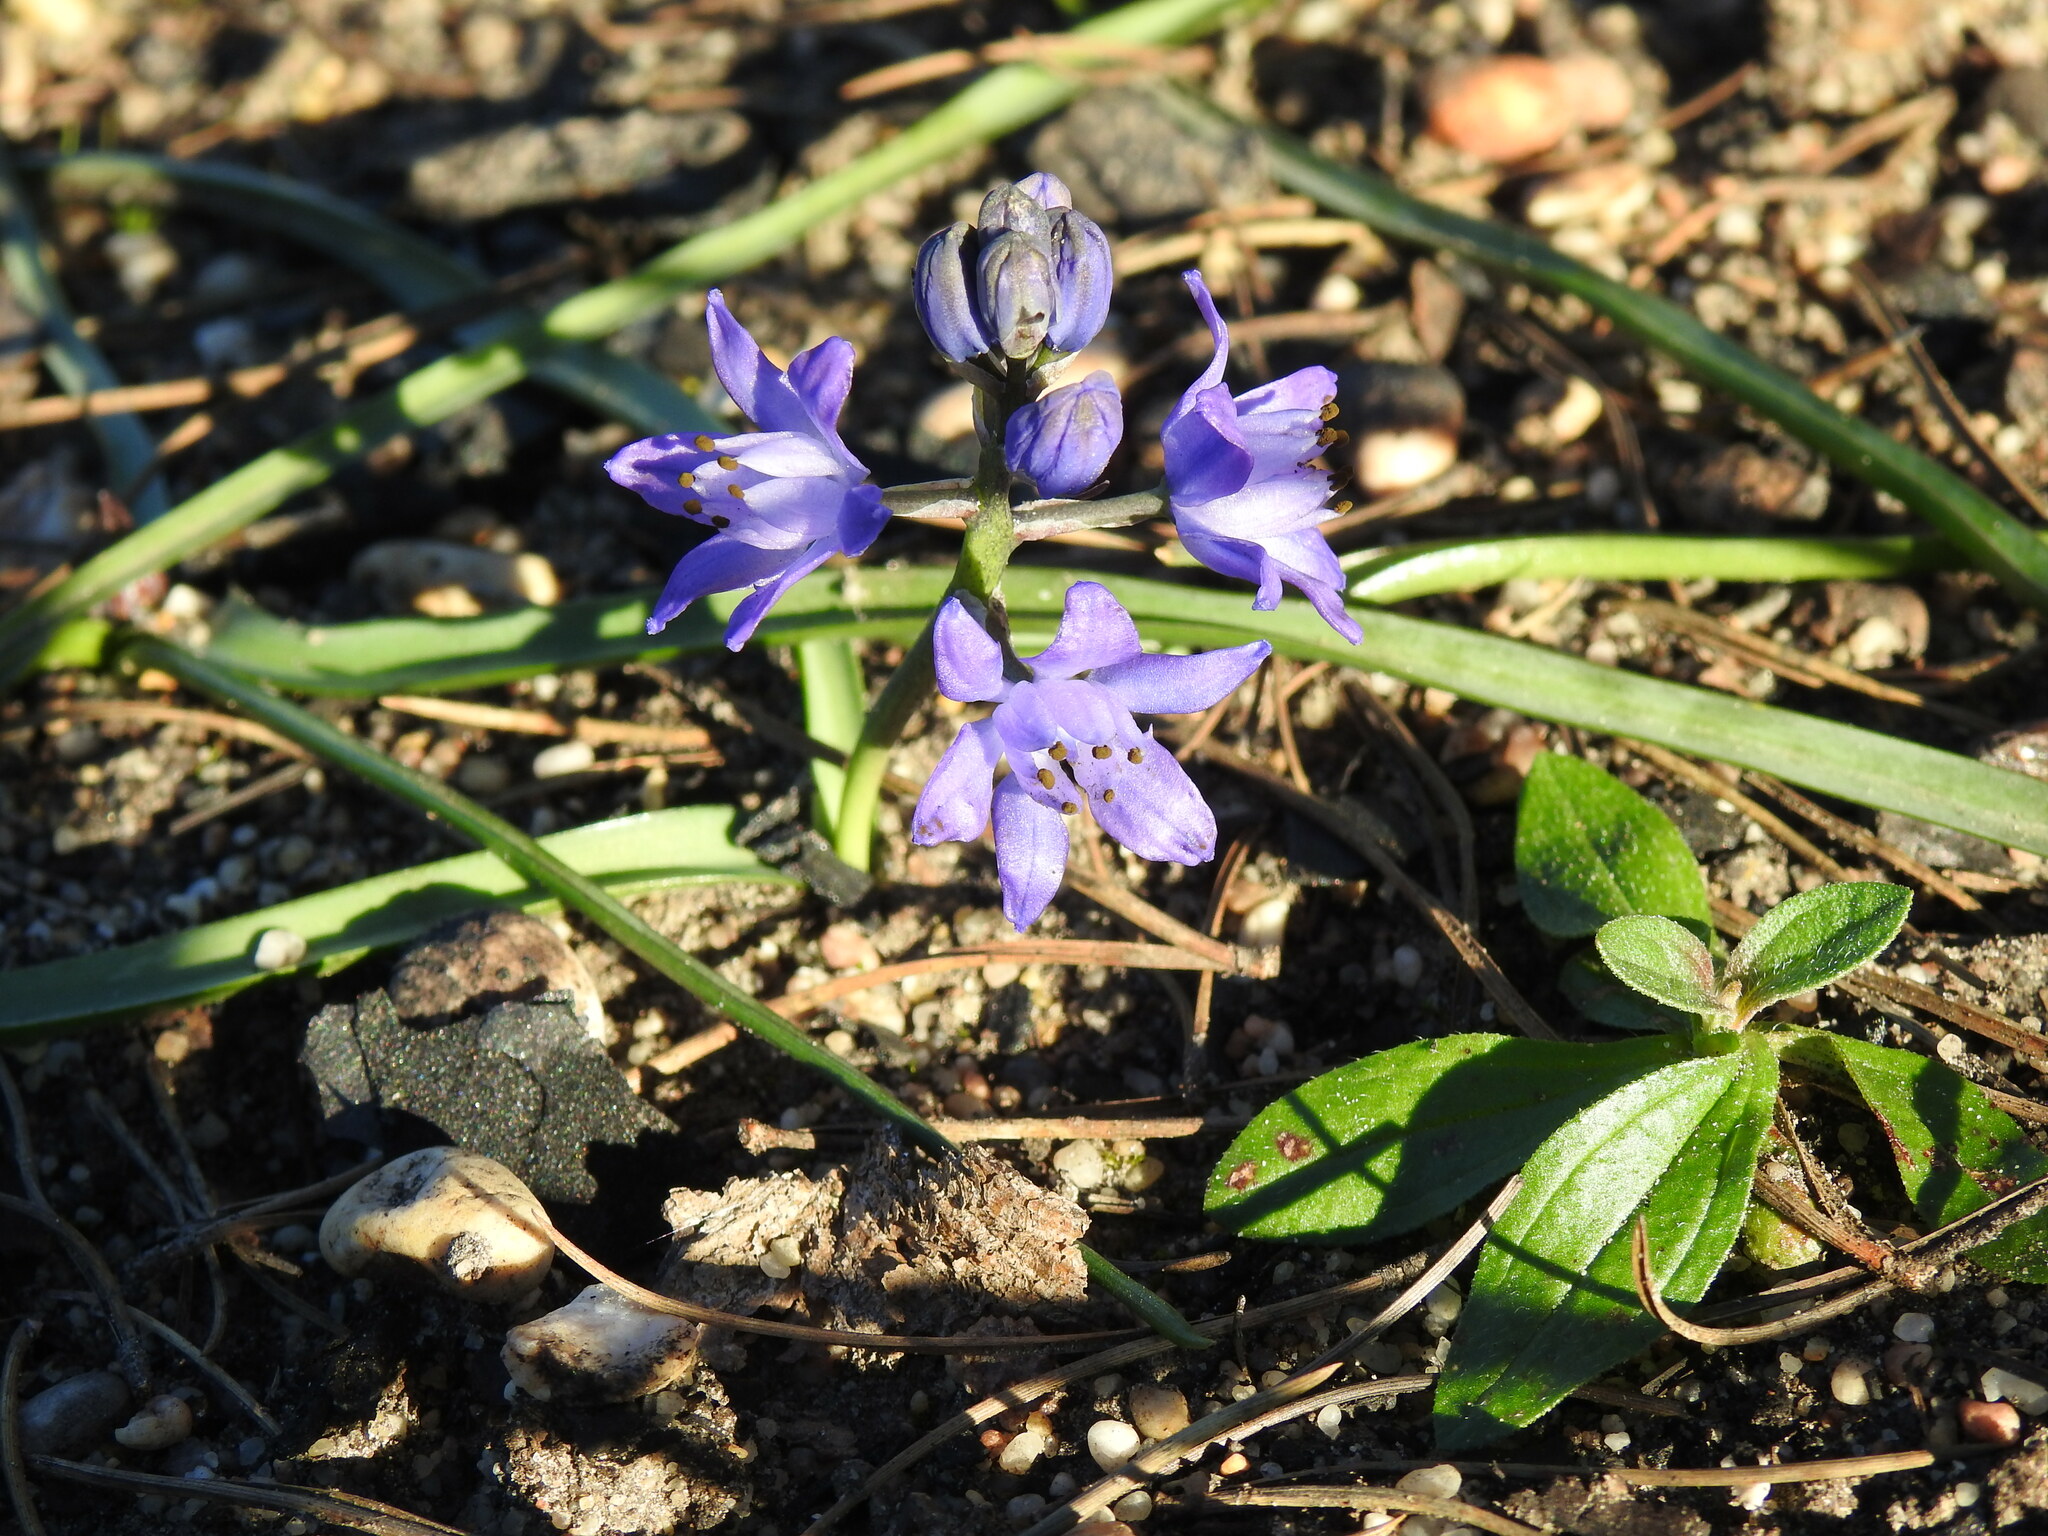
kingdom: Plantae
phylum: Tracheophyta
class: Liliopsida
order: Asparagales
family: Asparagaceae
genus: Scilla
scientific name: Scilla verna
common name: Spring squill
